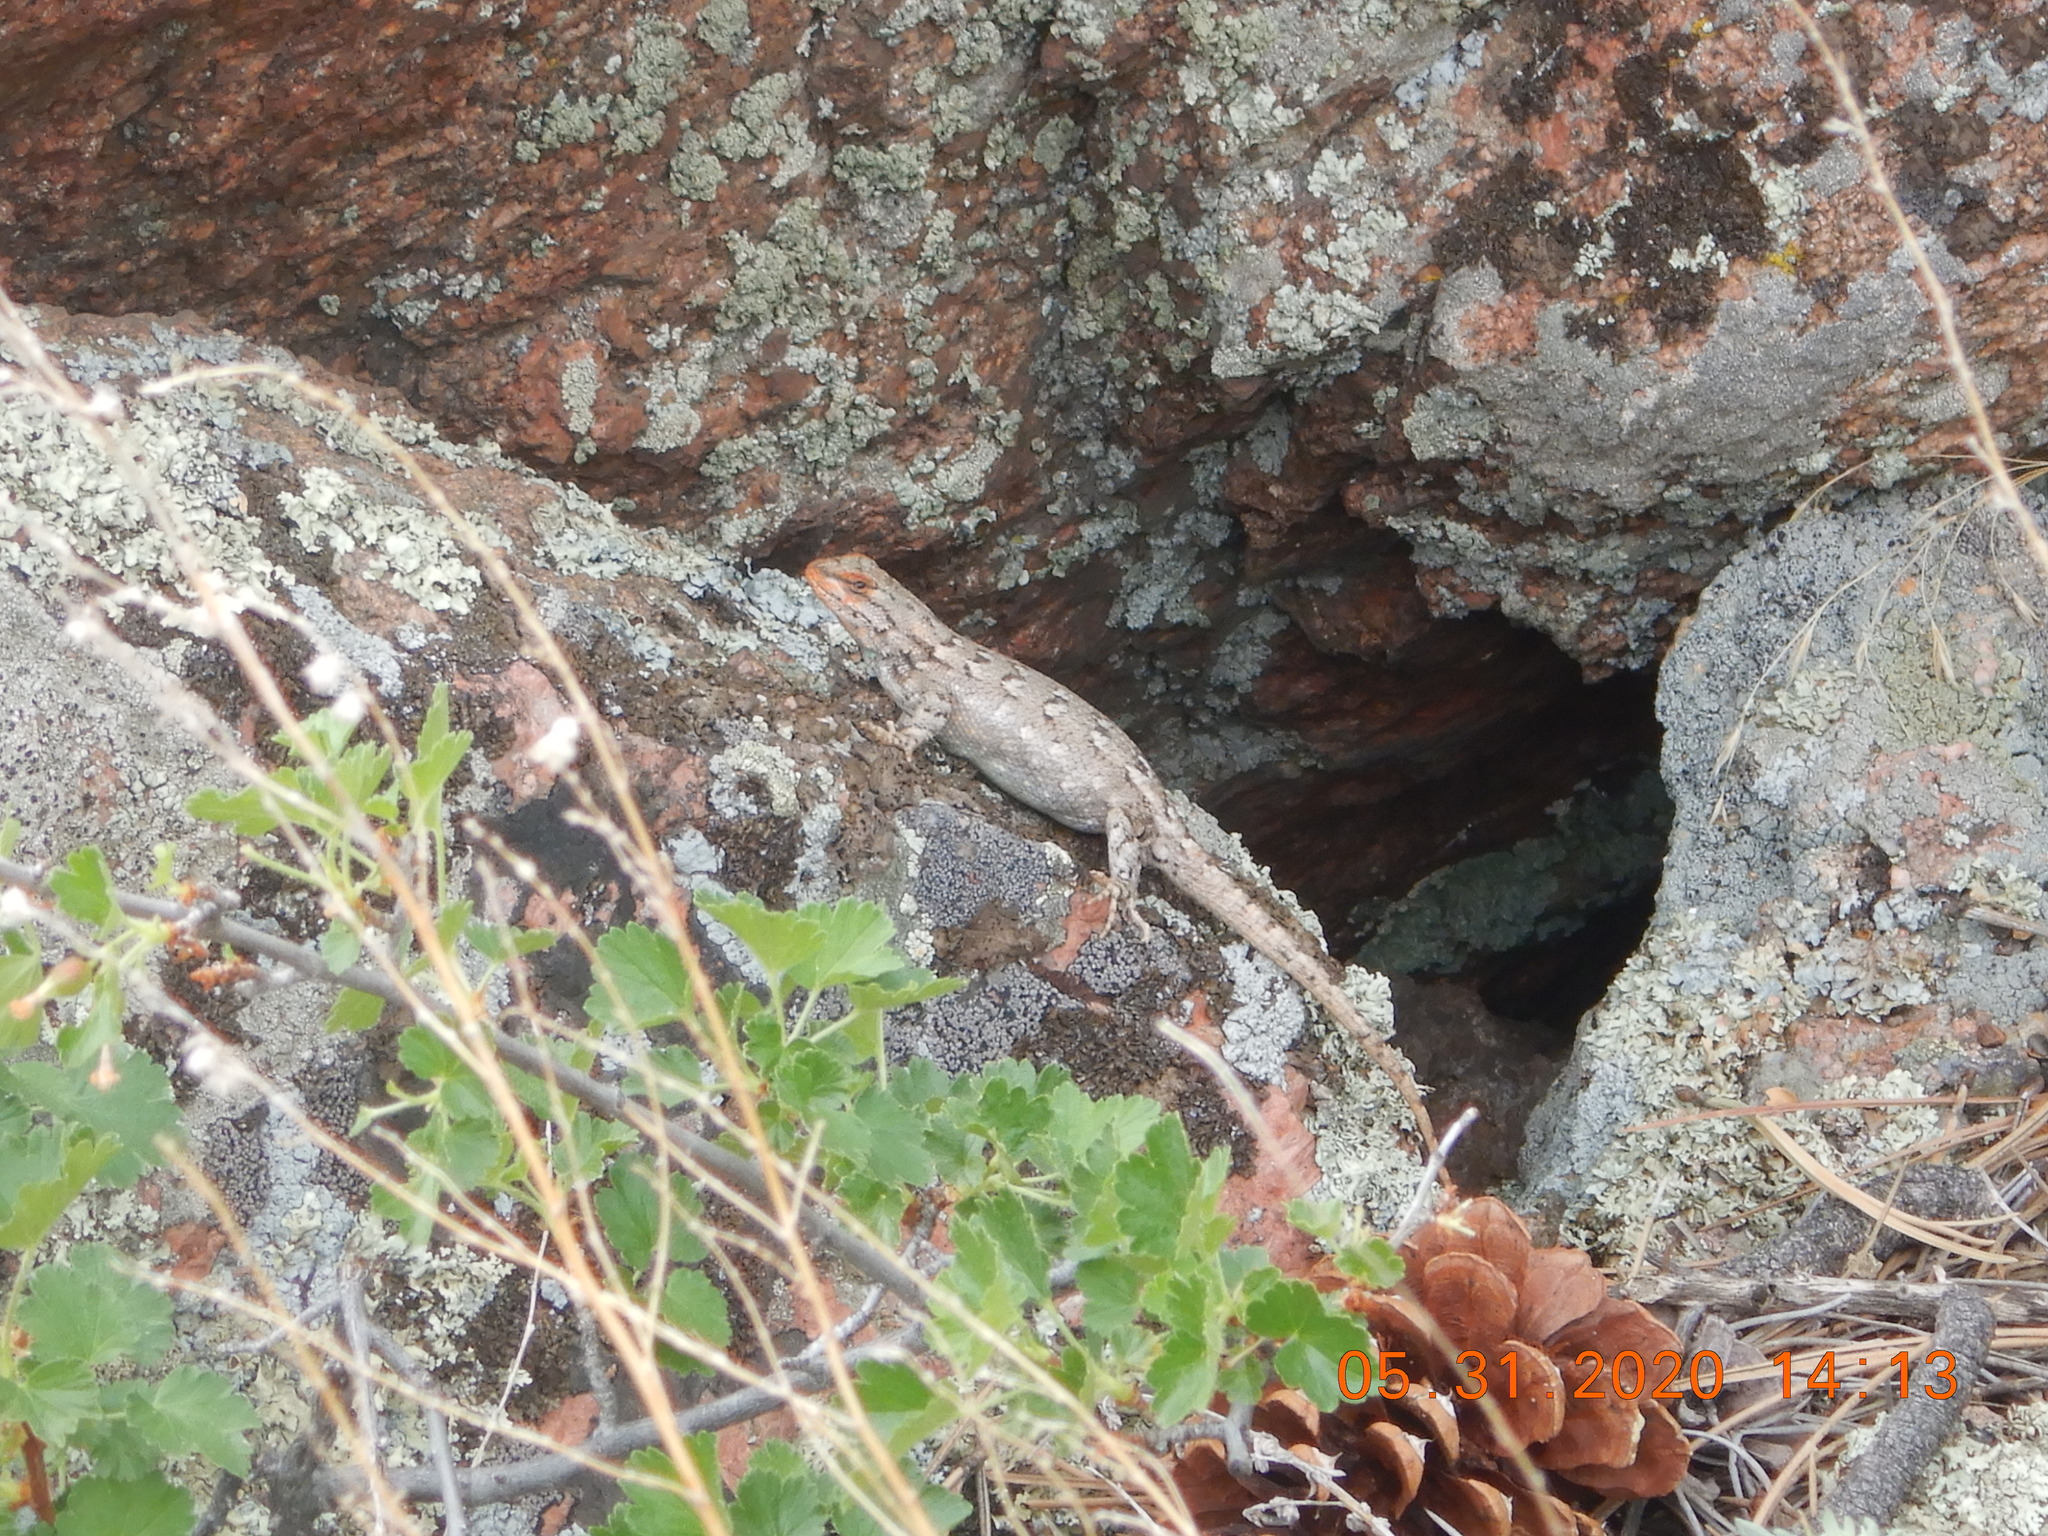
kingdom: Animalia
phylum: Chordata
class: Squamata
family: Phrynosomatidae
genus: Sceloporus
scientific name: Sceloporus consobrinus
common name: Southern prairie lizard
